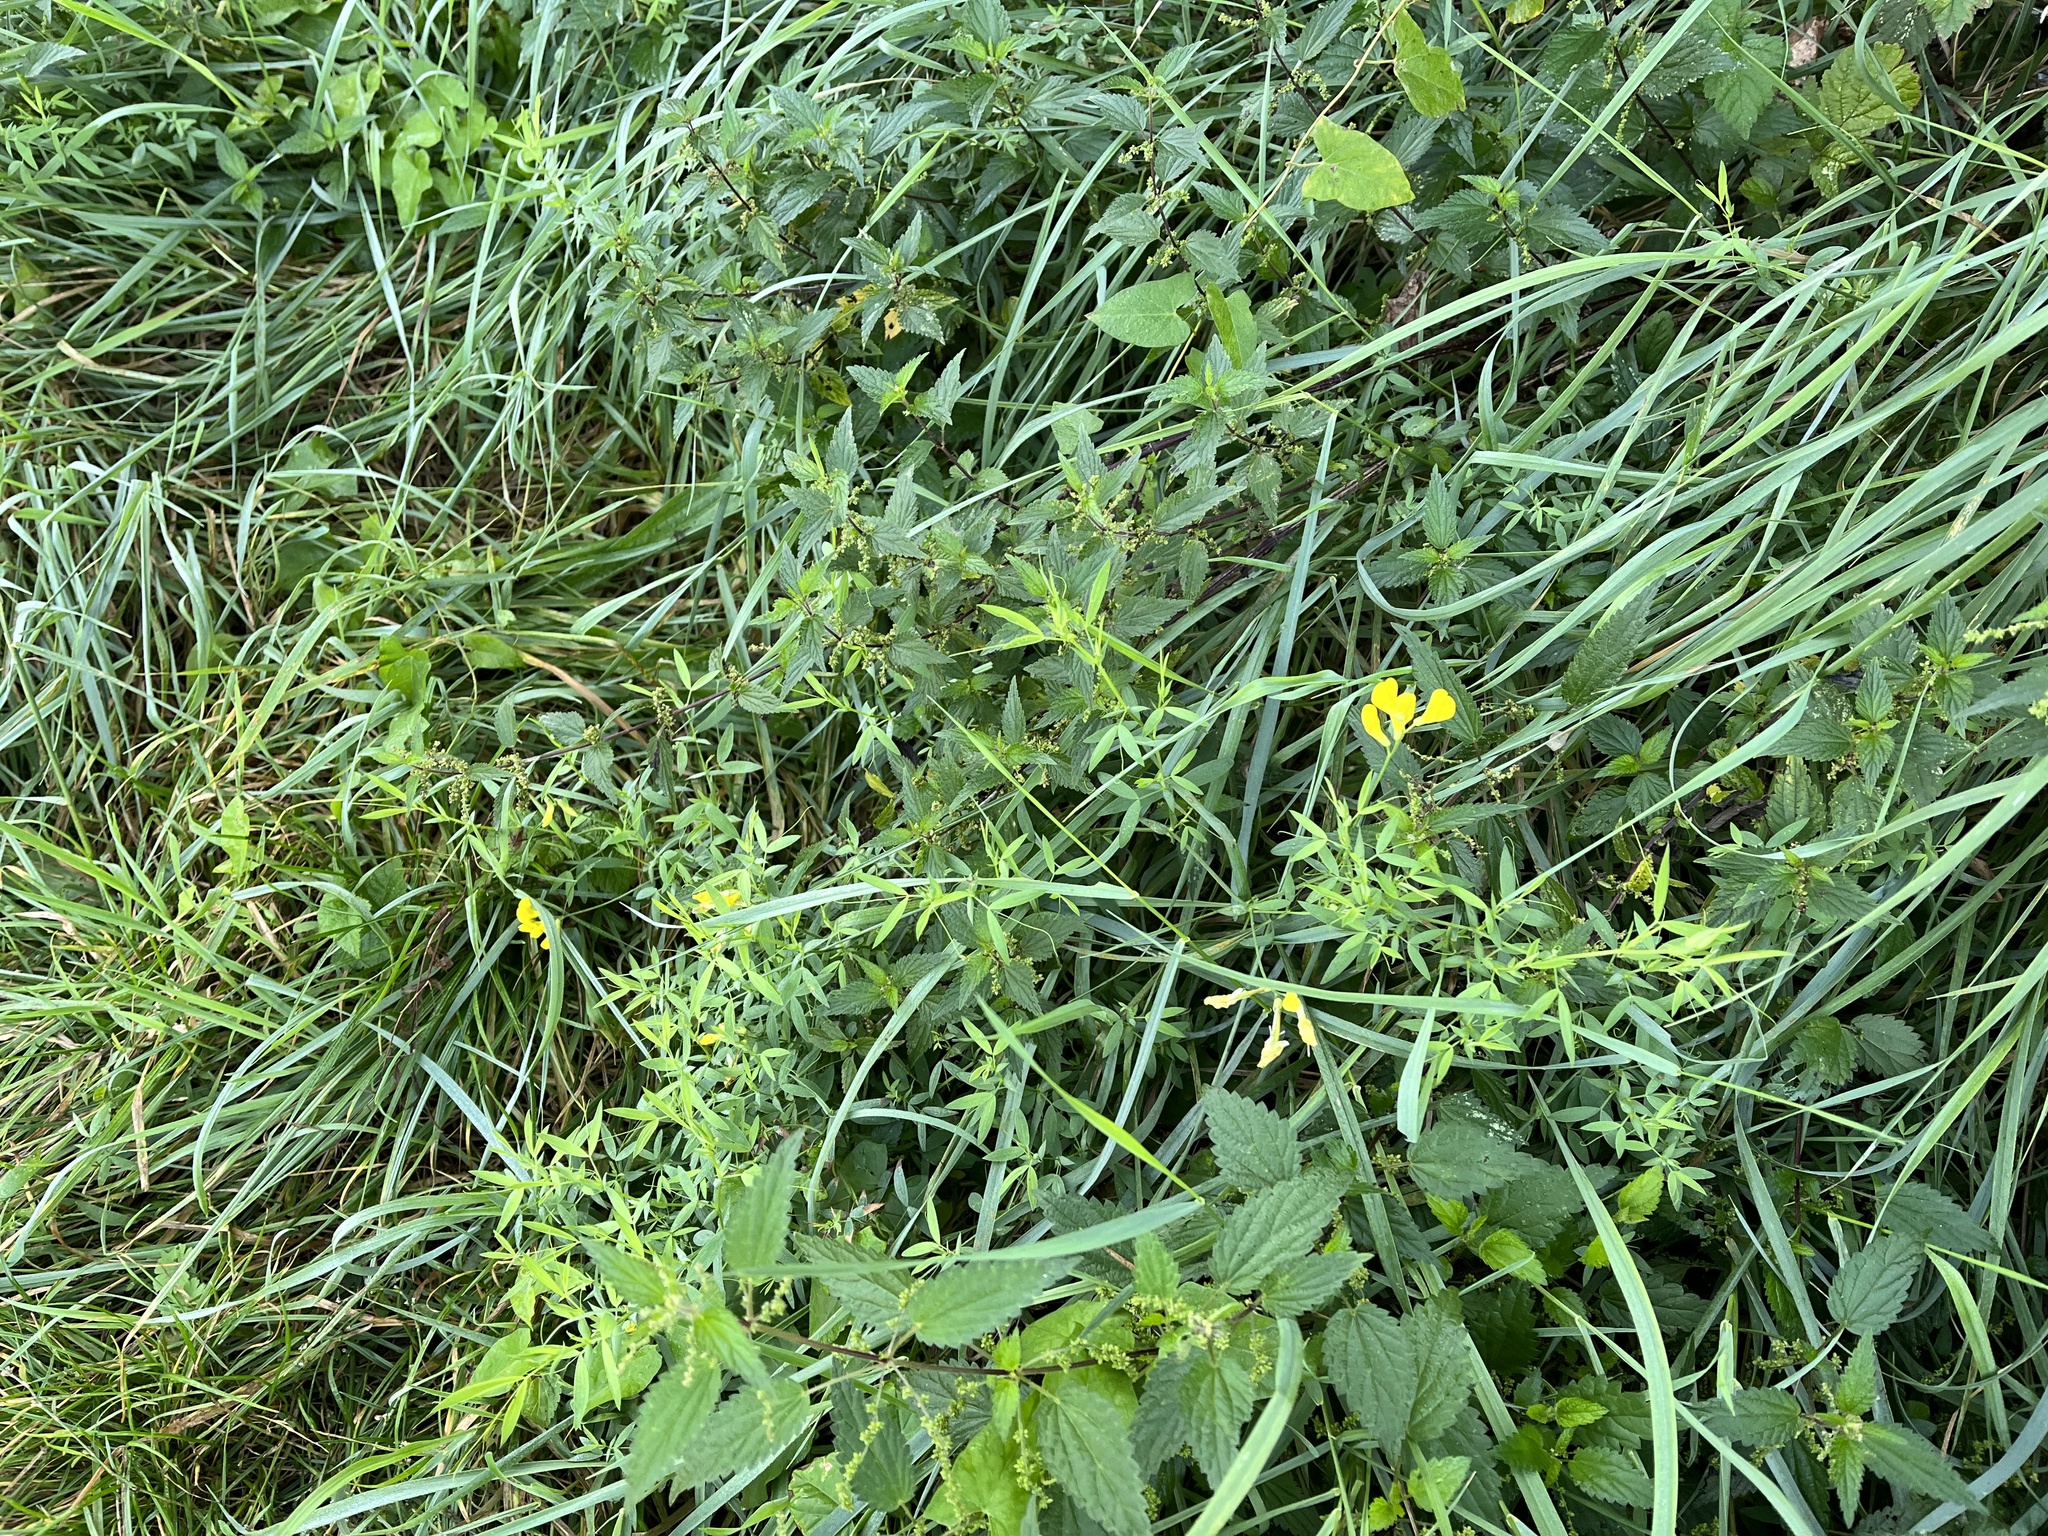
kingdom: Plantae
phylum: Tracheophyta
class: Magnoliopsida
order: Fabales
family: Fabaceae
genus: Lathyrus
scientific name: Lathyrus pratensis
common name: Meadow vetchling
